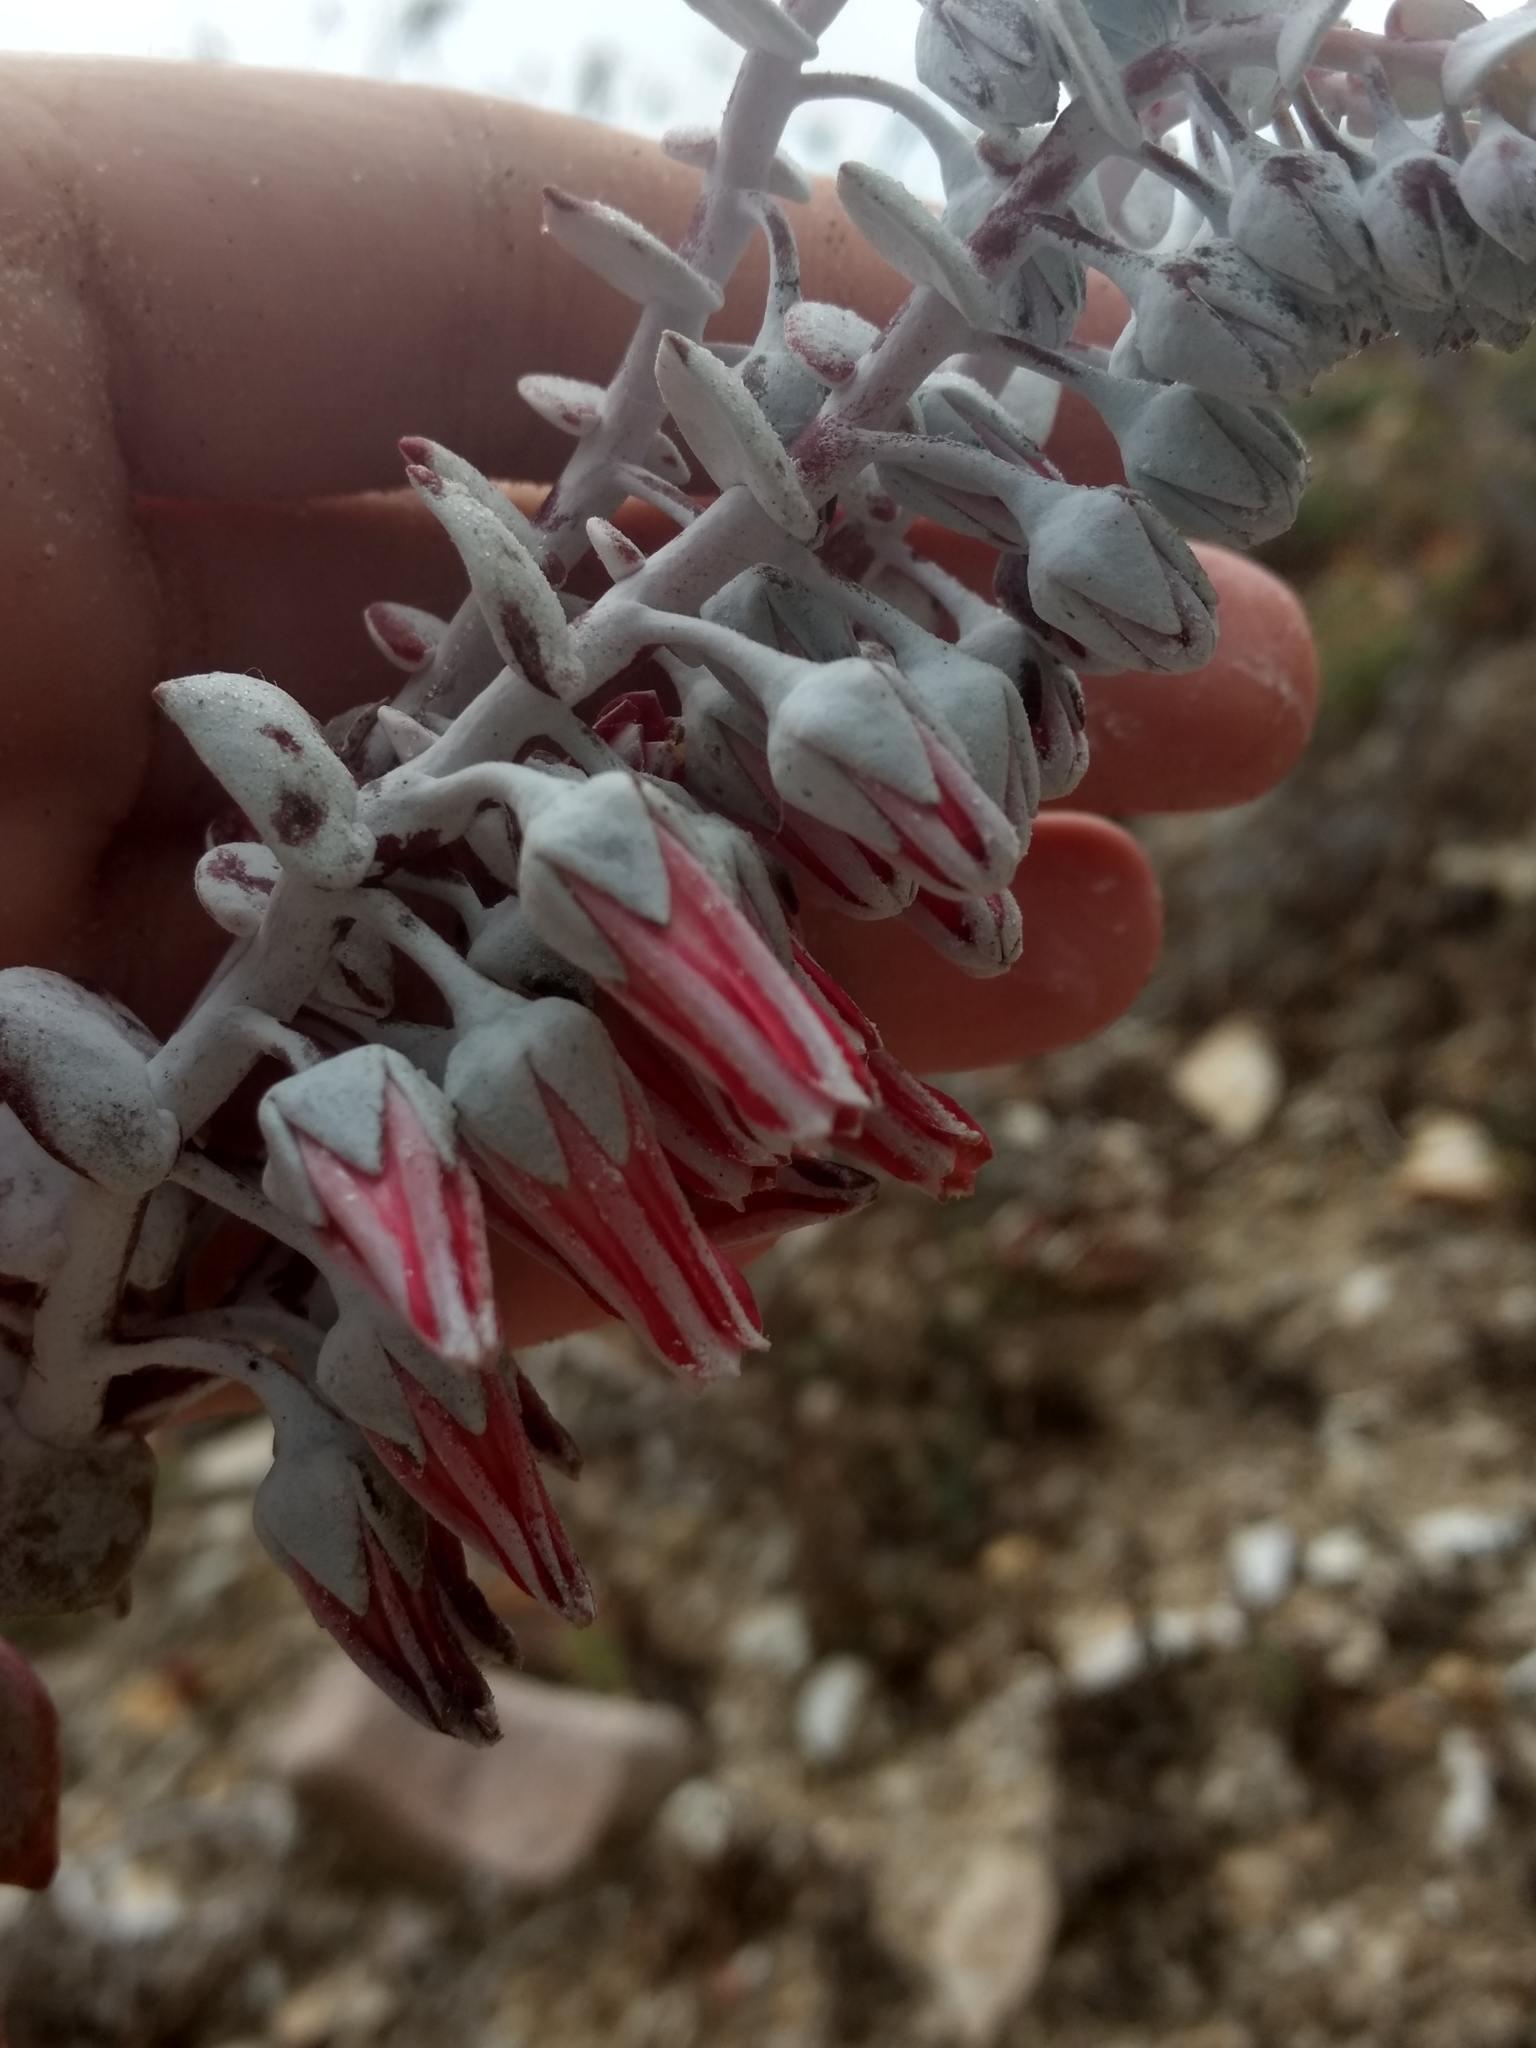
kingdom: Plantae
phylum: Tracheophyta
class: Magnoliopsida
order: Saxifragales
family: Crassulaceae
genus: Dudleya
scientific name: Dudleya pulverulenta
